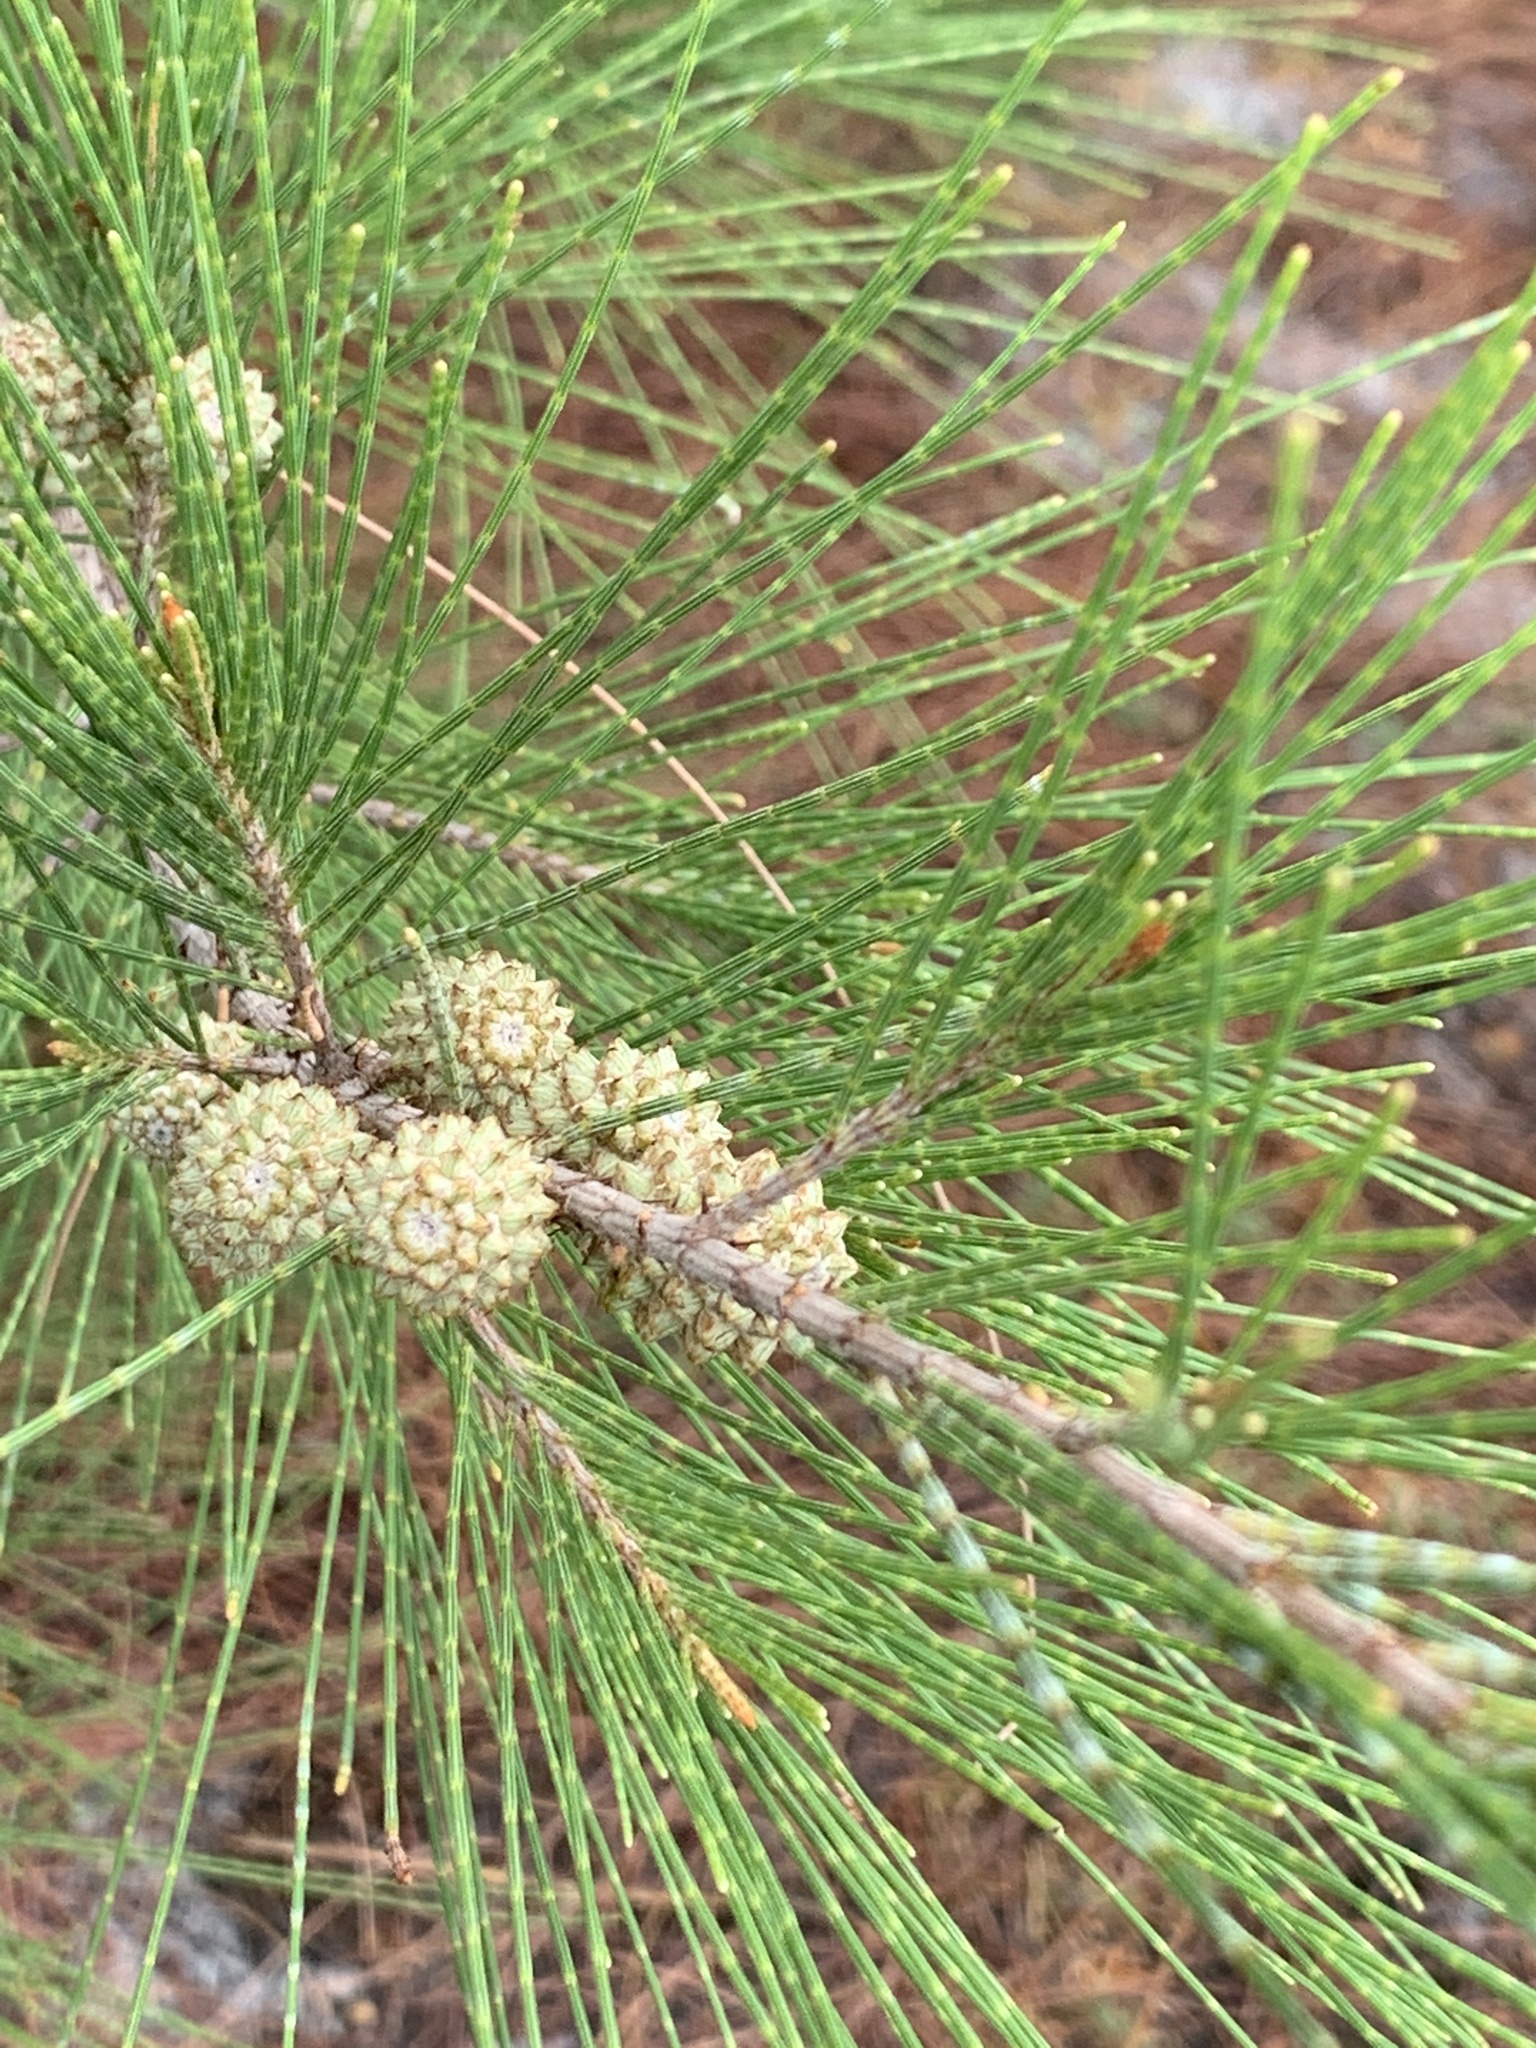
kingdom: Plantae
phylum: Tracheophyta
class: Magnoliopsida
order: Fagales
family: Casuarinaceae
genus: Casuarina
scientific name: Casuarina equisetifolia
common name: Beach sheoak
